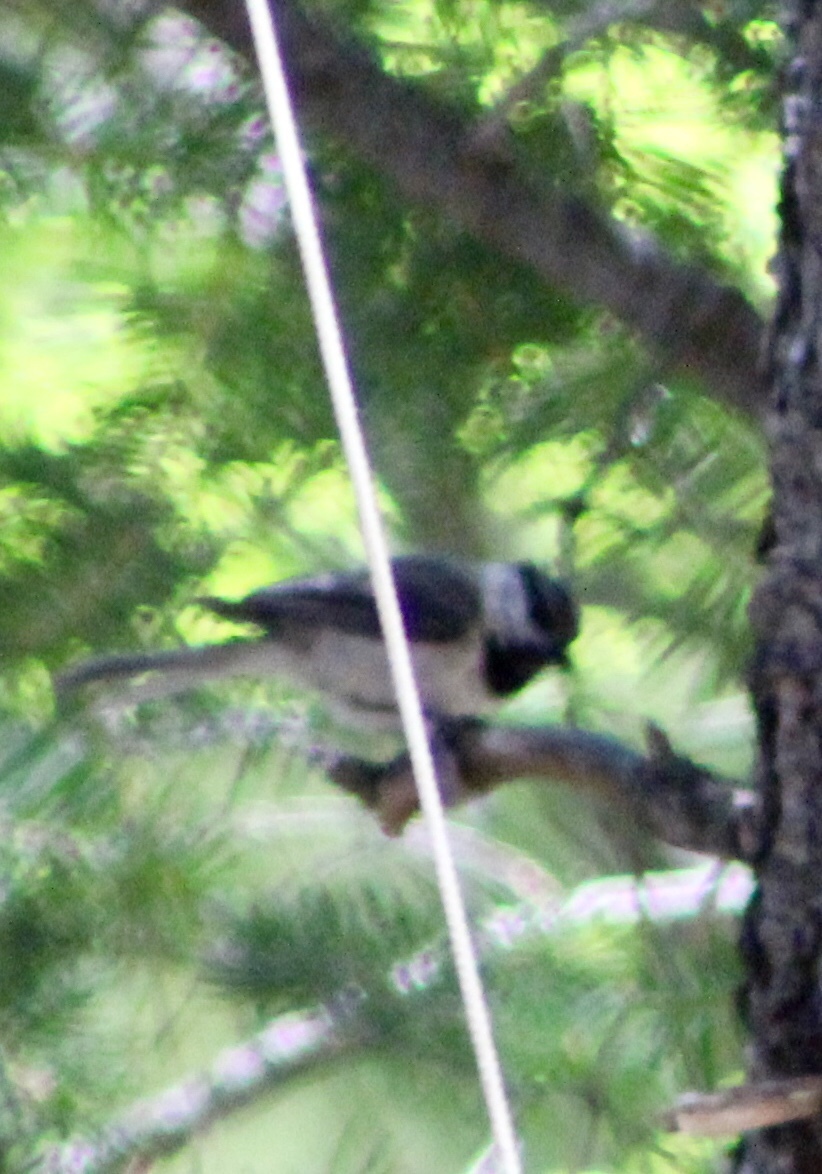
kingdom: Animalia
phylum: Chordata
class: Aves
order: Passeriformes
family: Paridae
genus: Poecile
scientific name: Poecile gambeli
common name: Mountain chickadee
